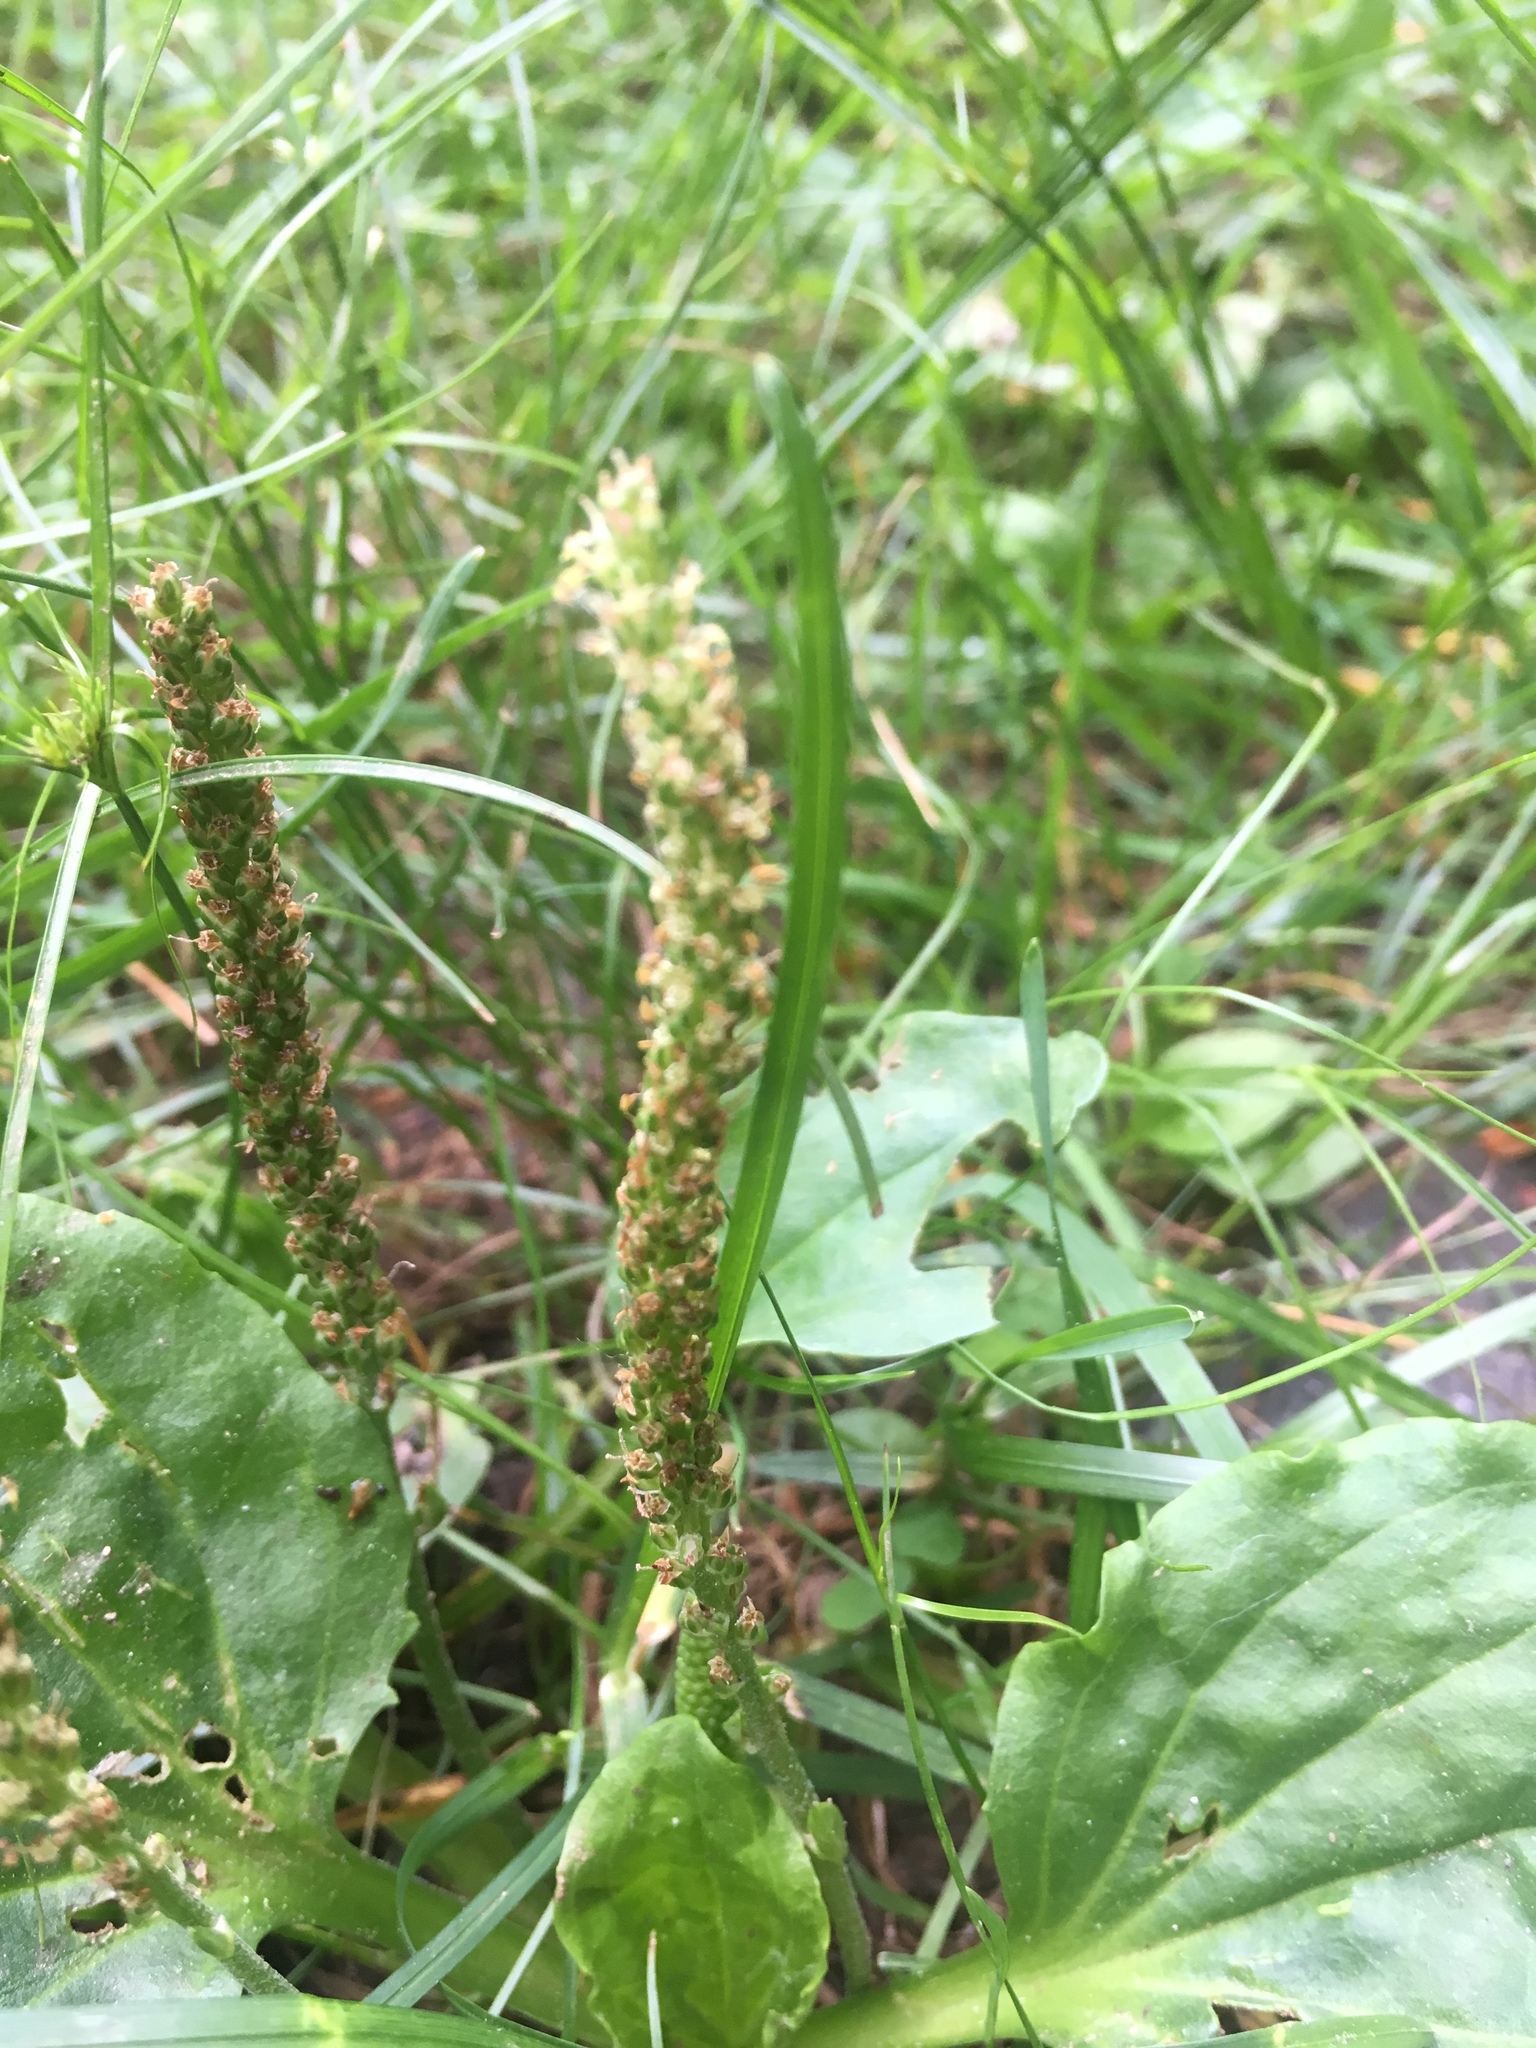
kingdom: Plantae
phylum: Tracheophyta
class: Magnoliopsida
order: Lamiales
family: Plantaginaceae
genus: Plantago
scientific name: Plantago major
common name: Common plantain
